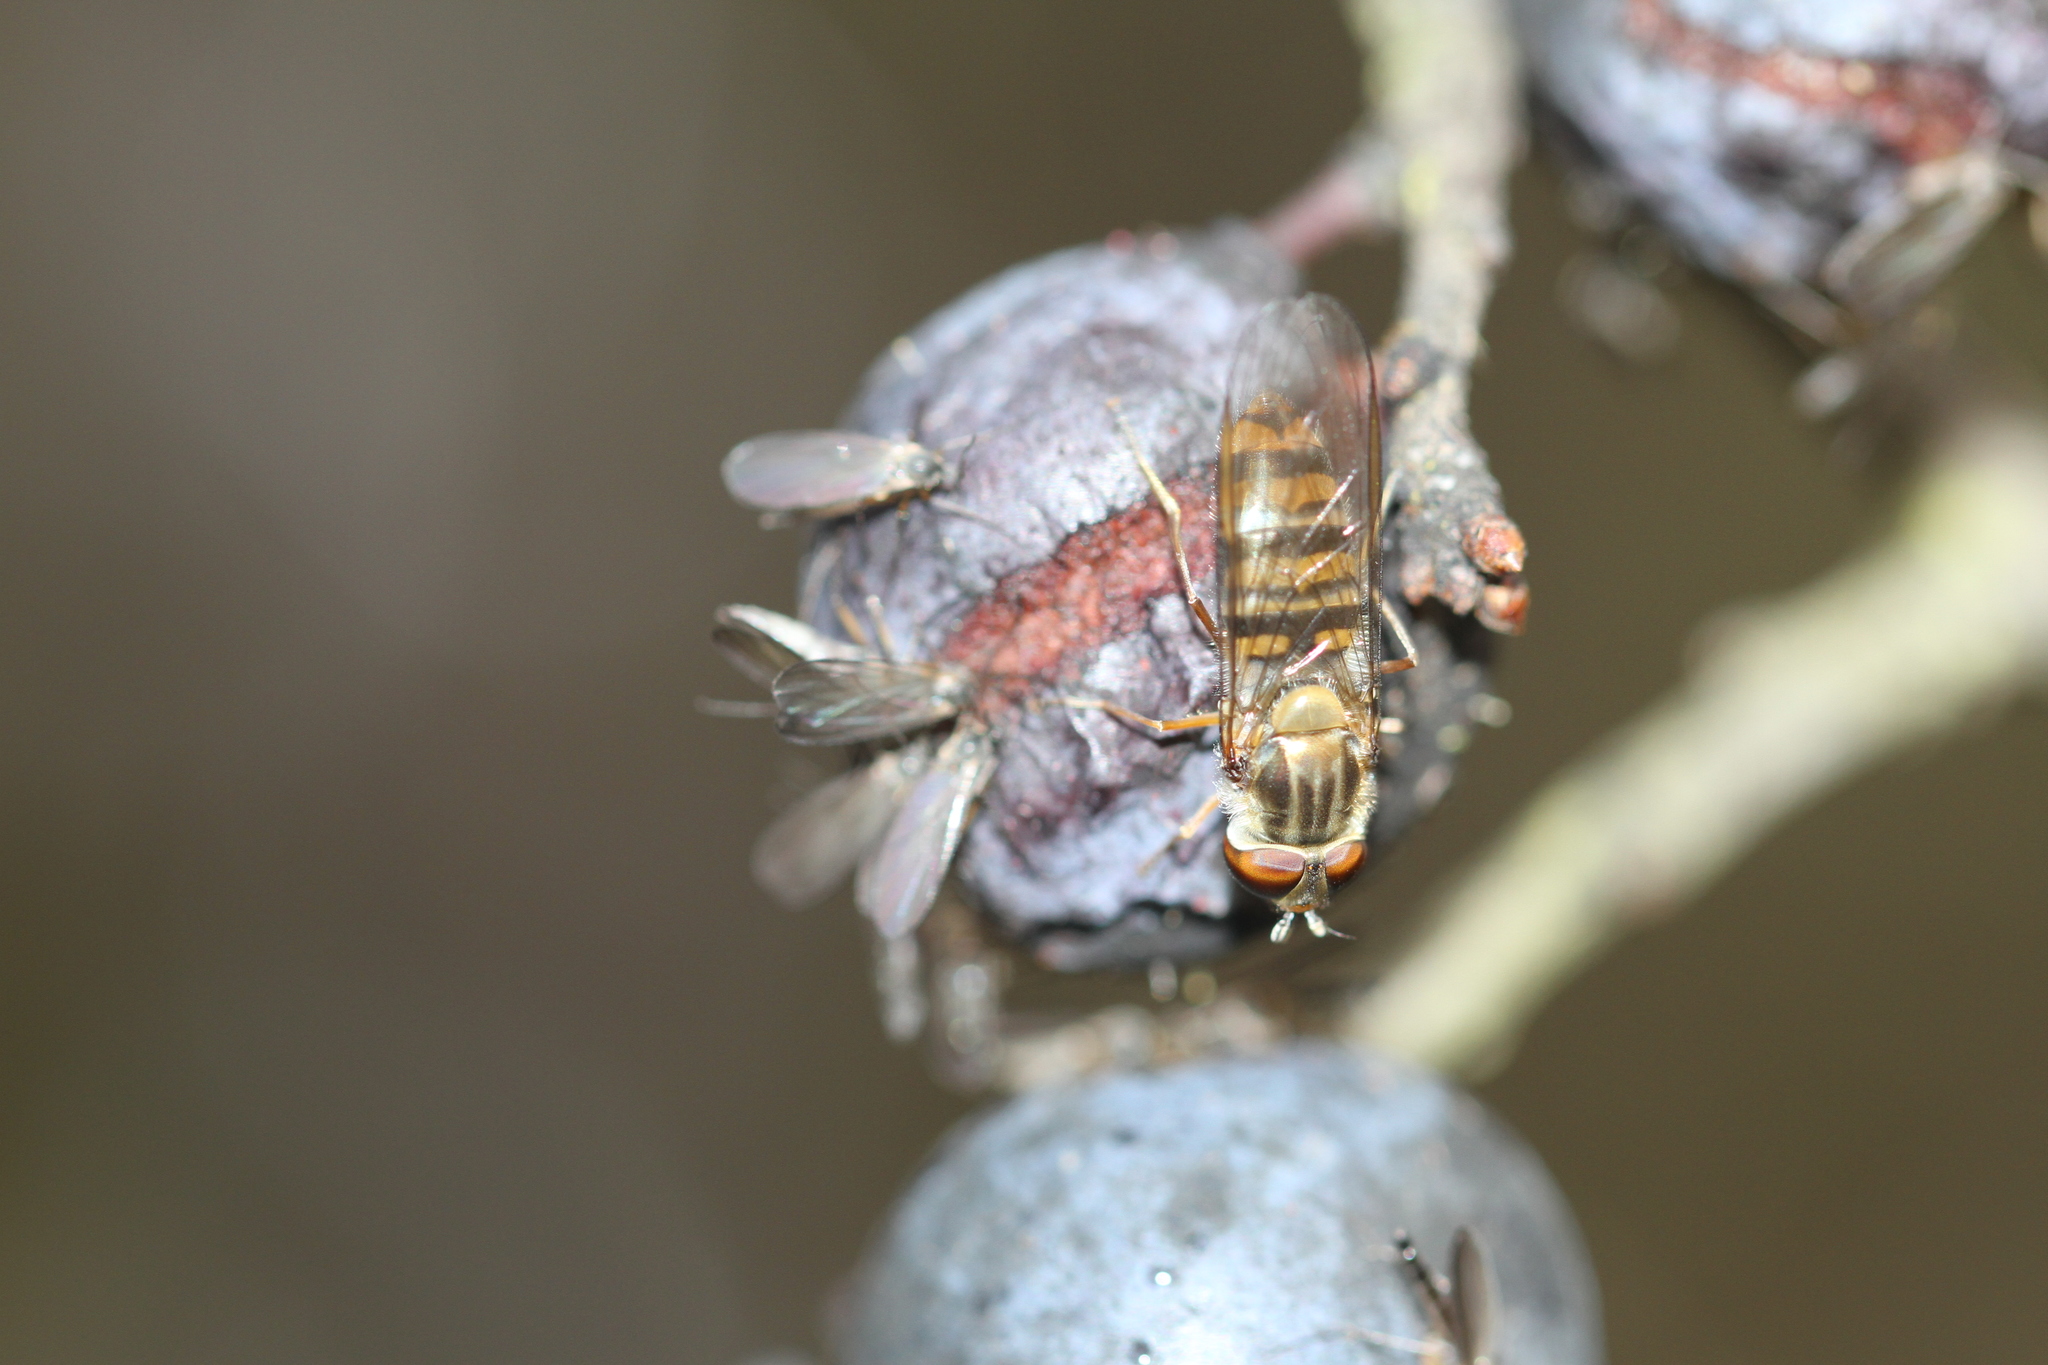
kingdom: Animalia
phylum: Arthropoda
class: Insecta
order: Diptera
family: Syrphidae
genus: Episyrphus
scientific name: Episyrphus balteatus
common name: Marmalade hoverfly
